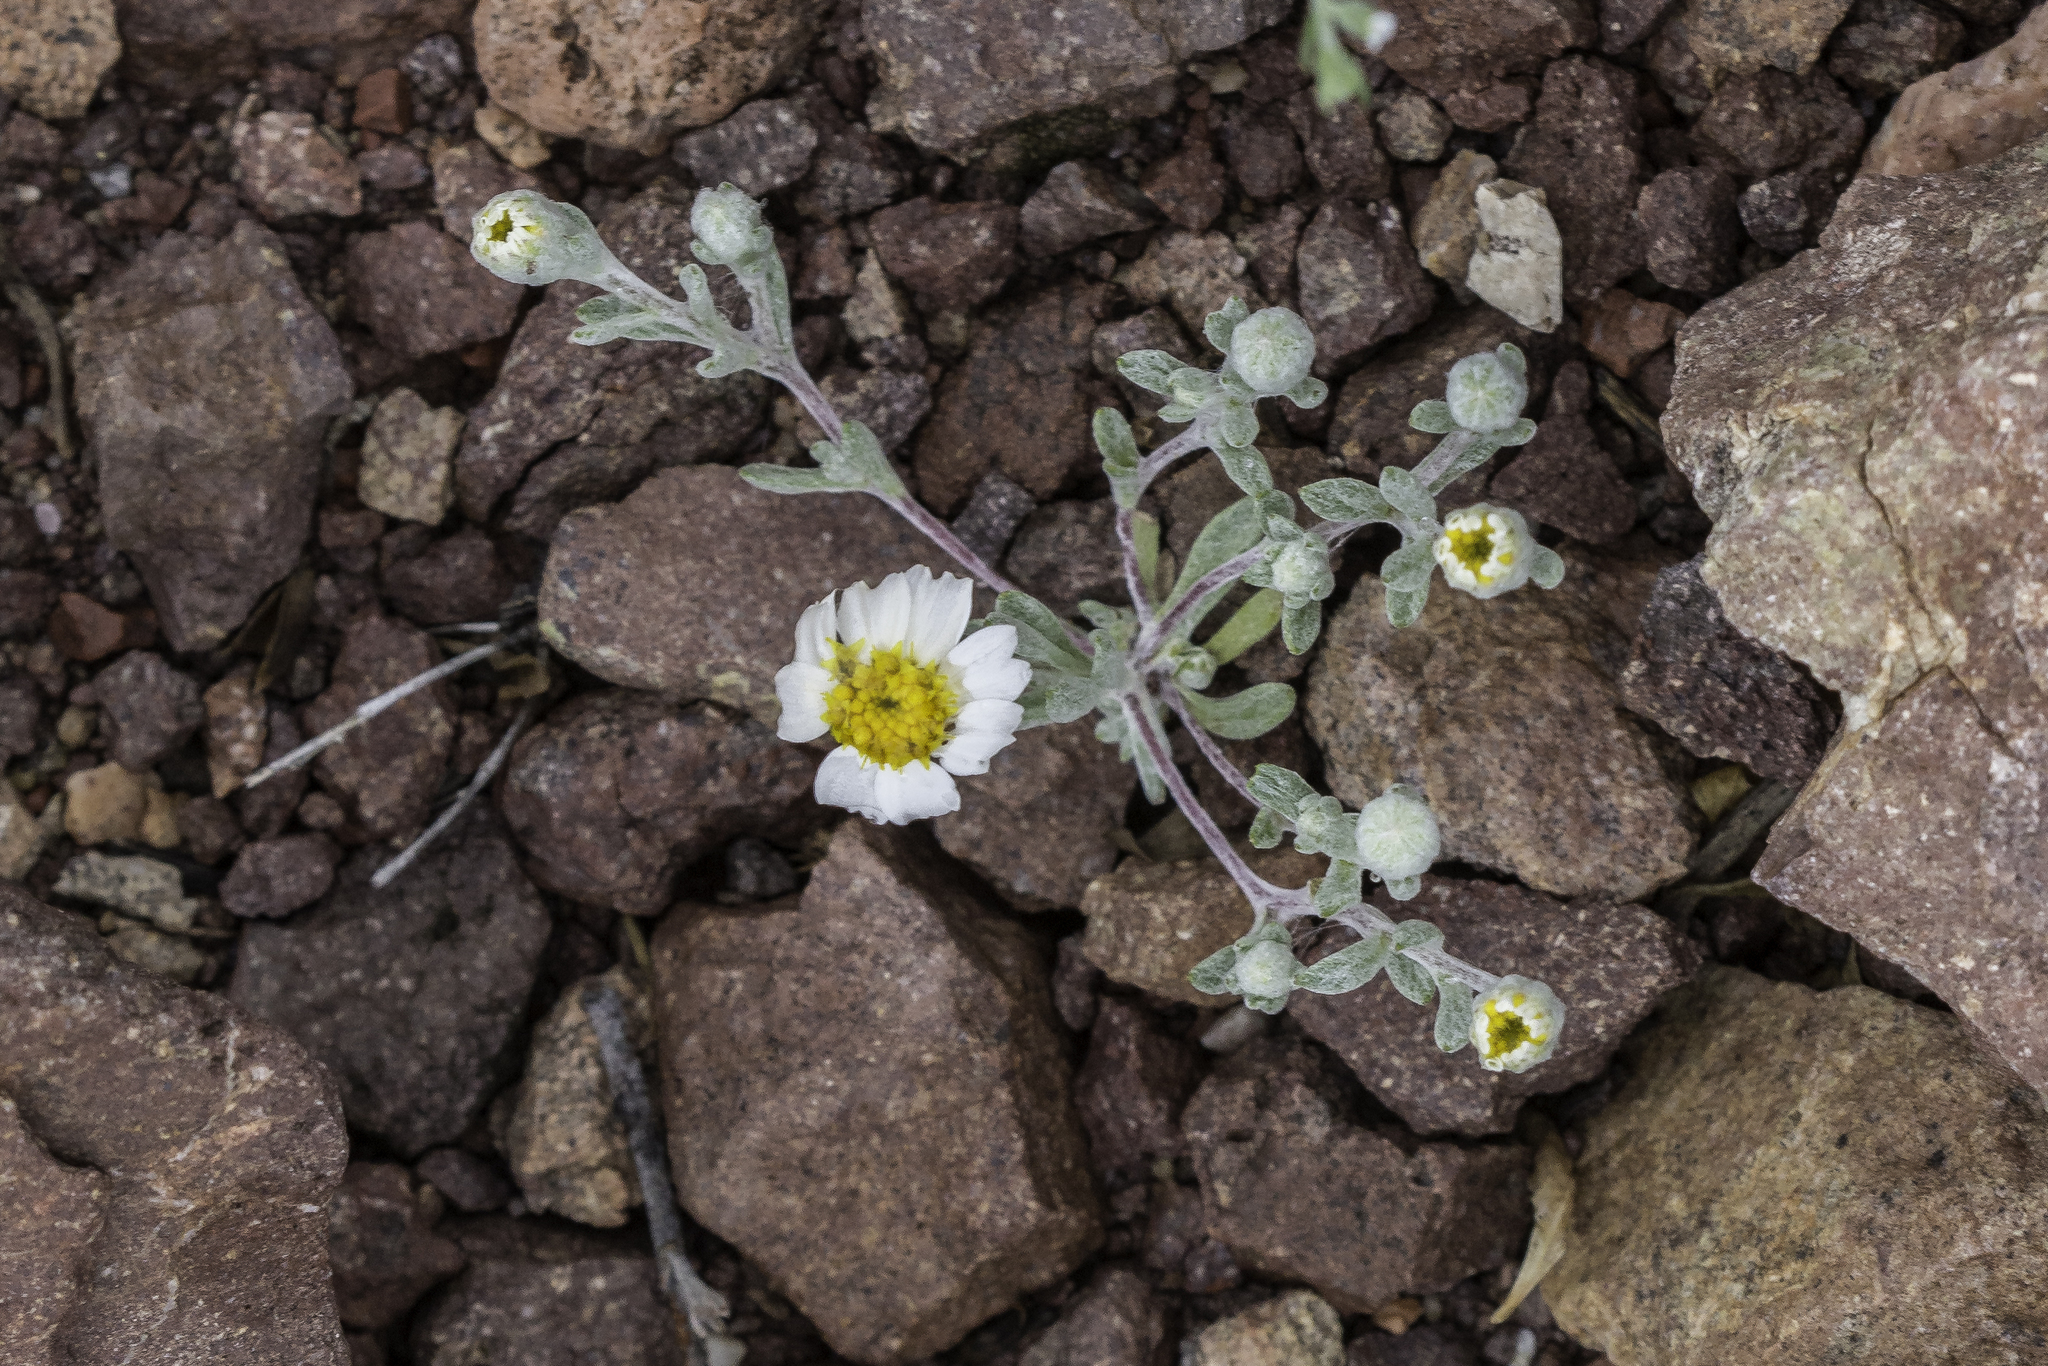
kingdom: Plantae
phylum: Tracheophyta
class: Magnoliopsida
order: Asterales
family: Asteraceae
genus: Eriophyllum
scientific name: Eriophyllum lanosum
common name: White easter-bonnets
